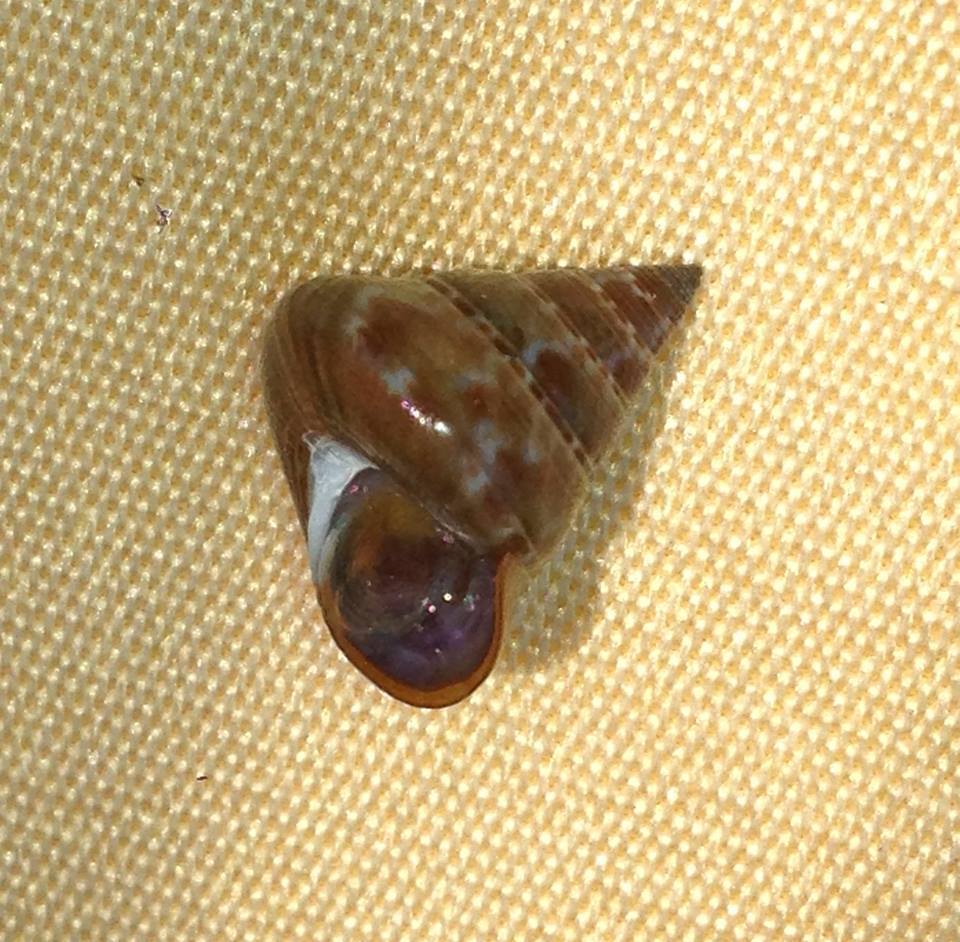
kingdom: Animalia
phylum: Mollusca
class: Gastropoda
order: Trochida
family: Calliostomatidae
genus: Calliostoma
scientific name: Calliostoma laugieri
